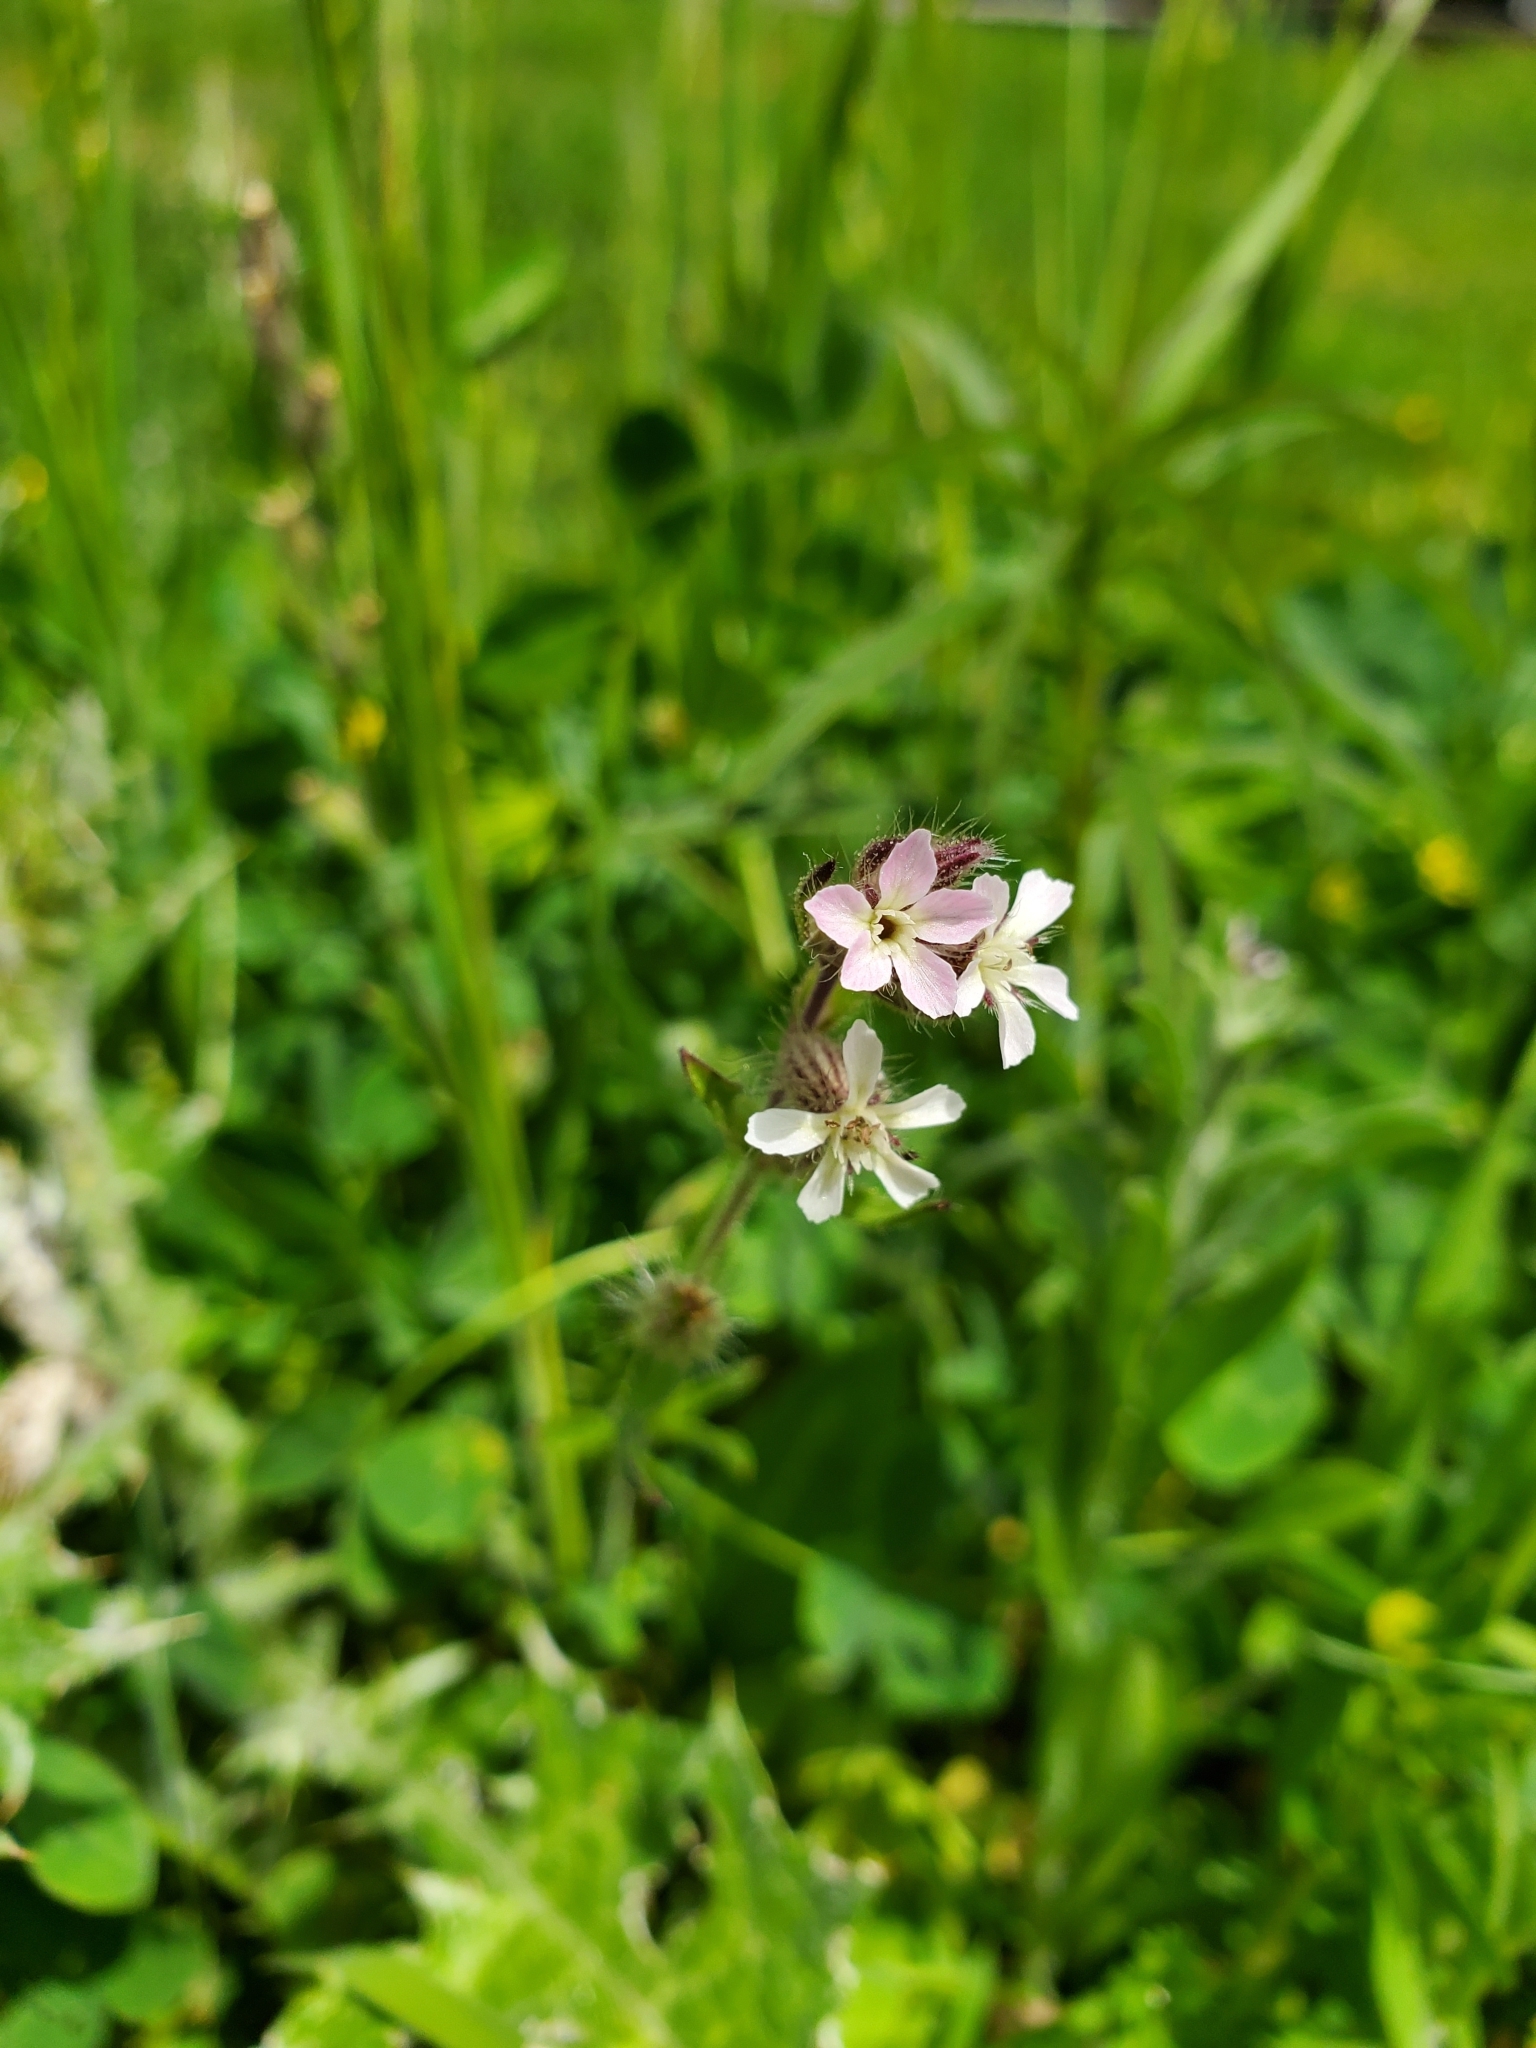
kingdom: Plantae
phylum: Tracheophyta
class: Magnoliopsida
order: Caryophyllales
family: Caryophyllaceae
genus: Silene
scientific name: Silene gallica
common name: Small-flowered catchfly
